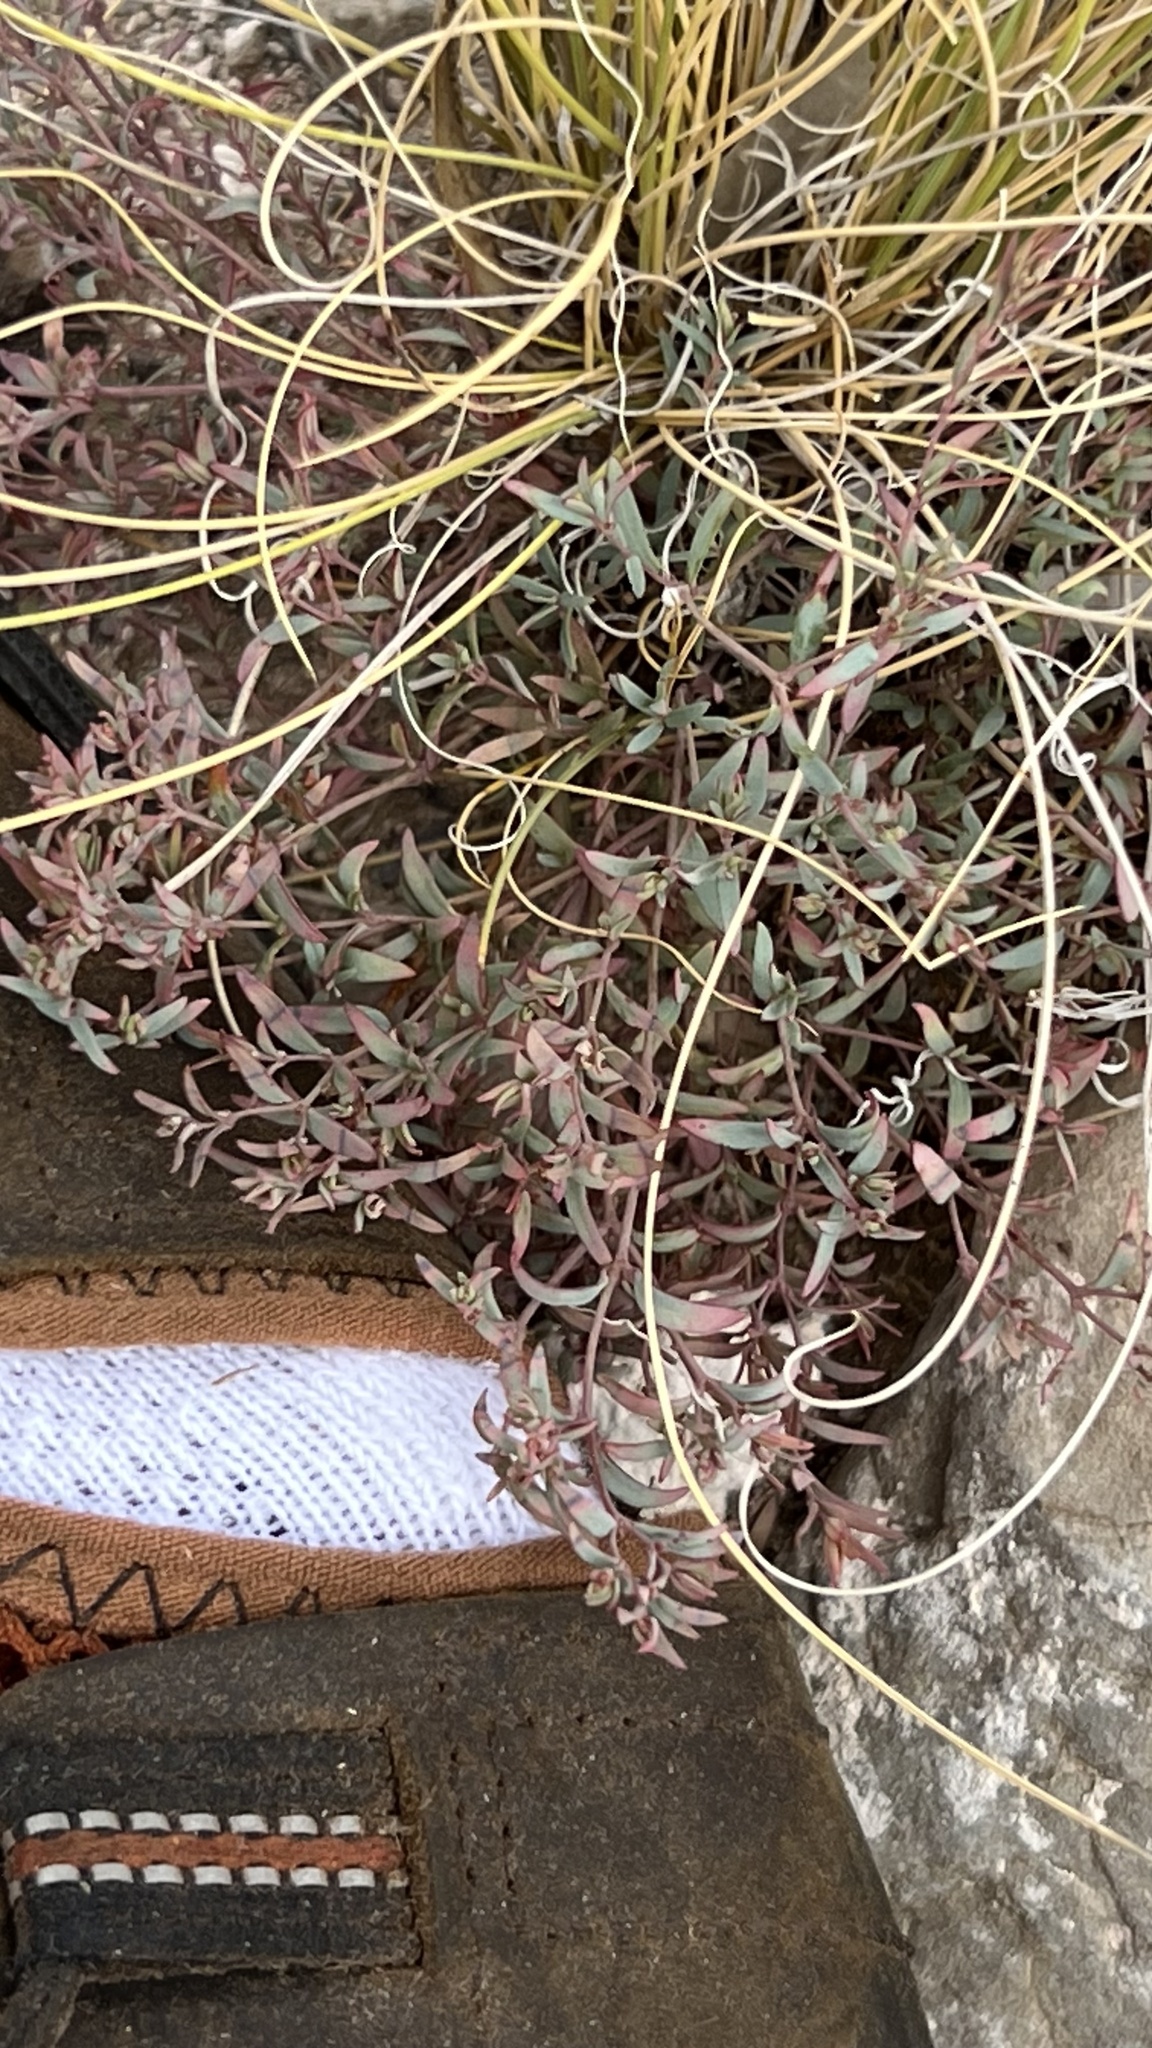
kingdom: Plantae
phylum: Tracheophyta
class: Magnoliopsida
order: Malpighiales
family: Euphorbiaceae
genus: Euphorbia
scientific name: Euphorbia chaetocalyx
